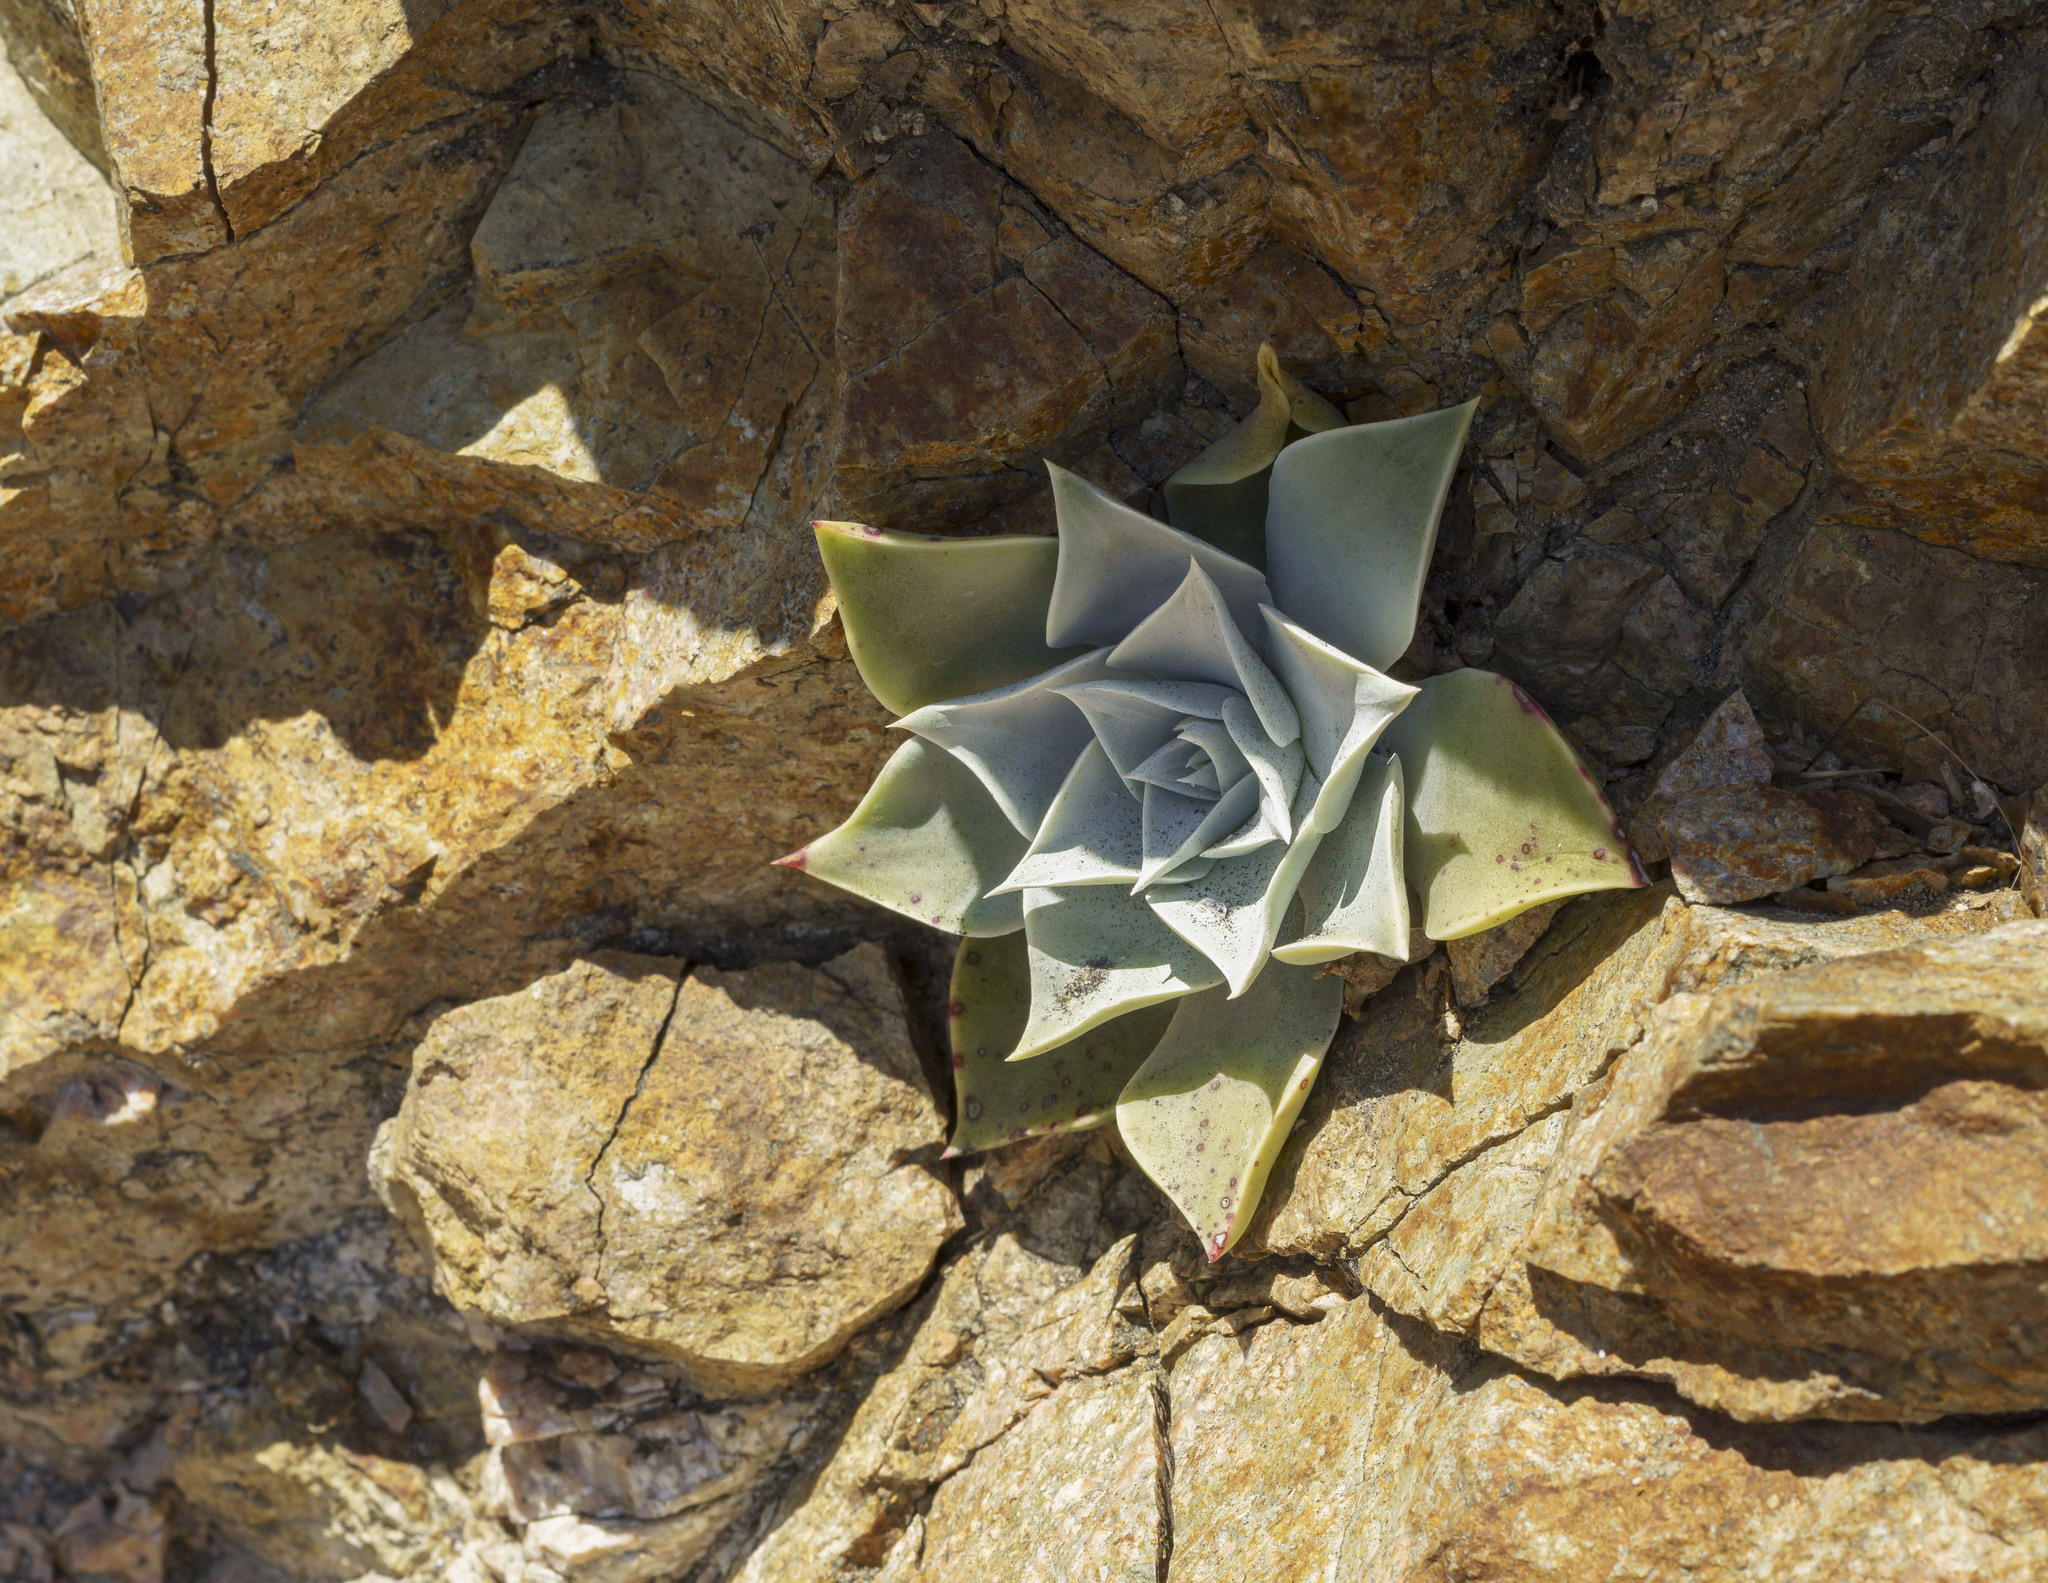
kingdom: Plantae
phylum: Tracheophyta
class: Magnoliopsida
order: Saxifragales
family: Crassulaceae
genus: Dudleya
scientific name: Dudleya cymosa
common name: Canyon dudleya
